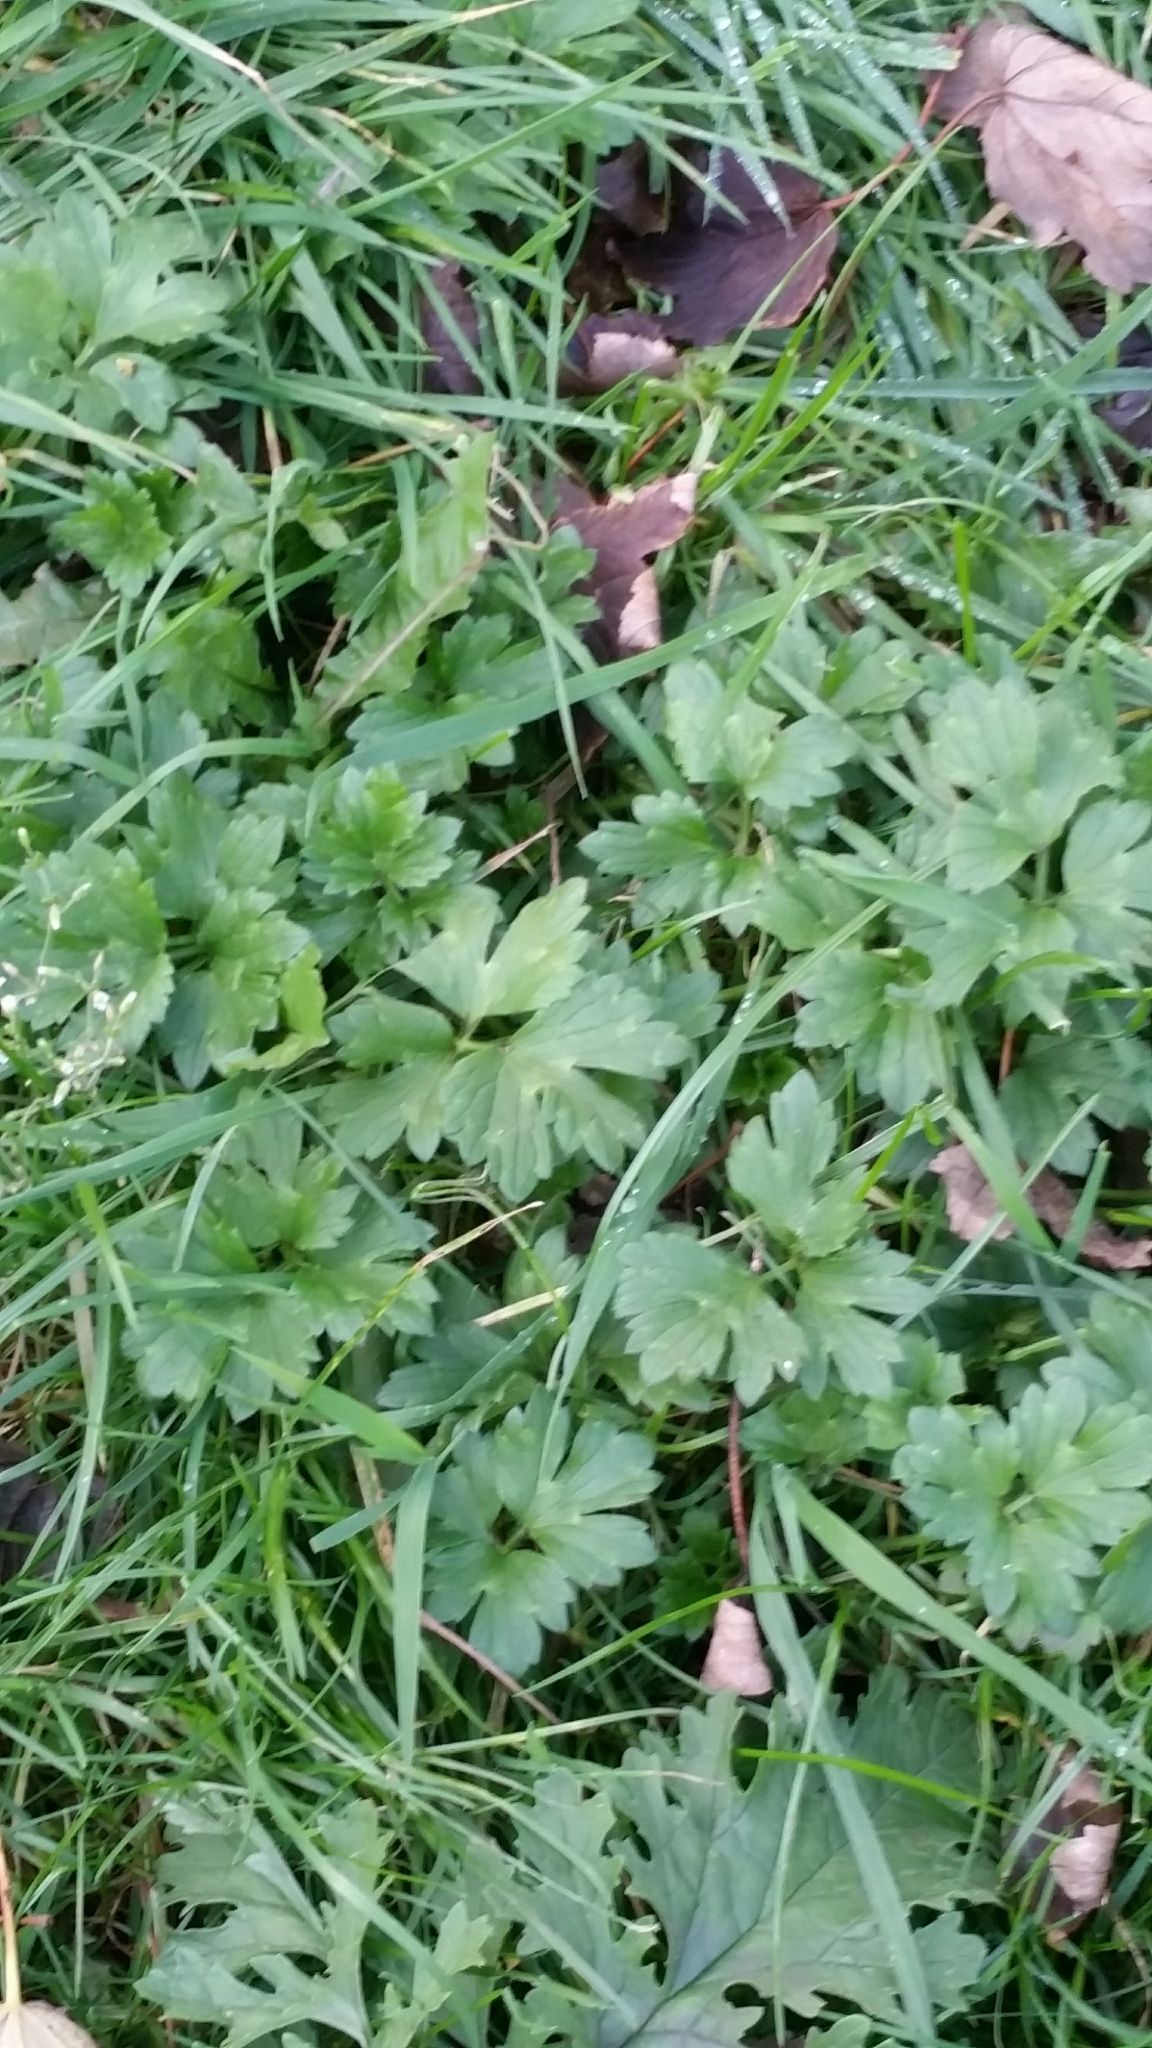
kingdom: Plantae
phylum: Tracheophyta
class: Magnoliopsida
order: Ranunculales
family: Ranunculaceae
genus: Ranunculus
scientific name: Ranunculus repens
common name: Creeping buttercup
